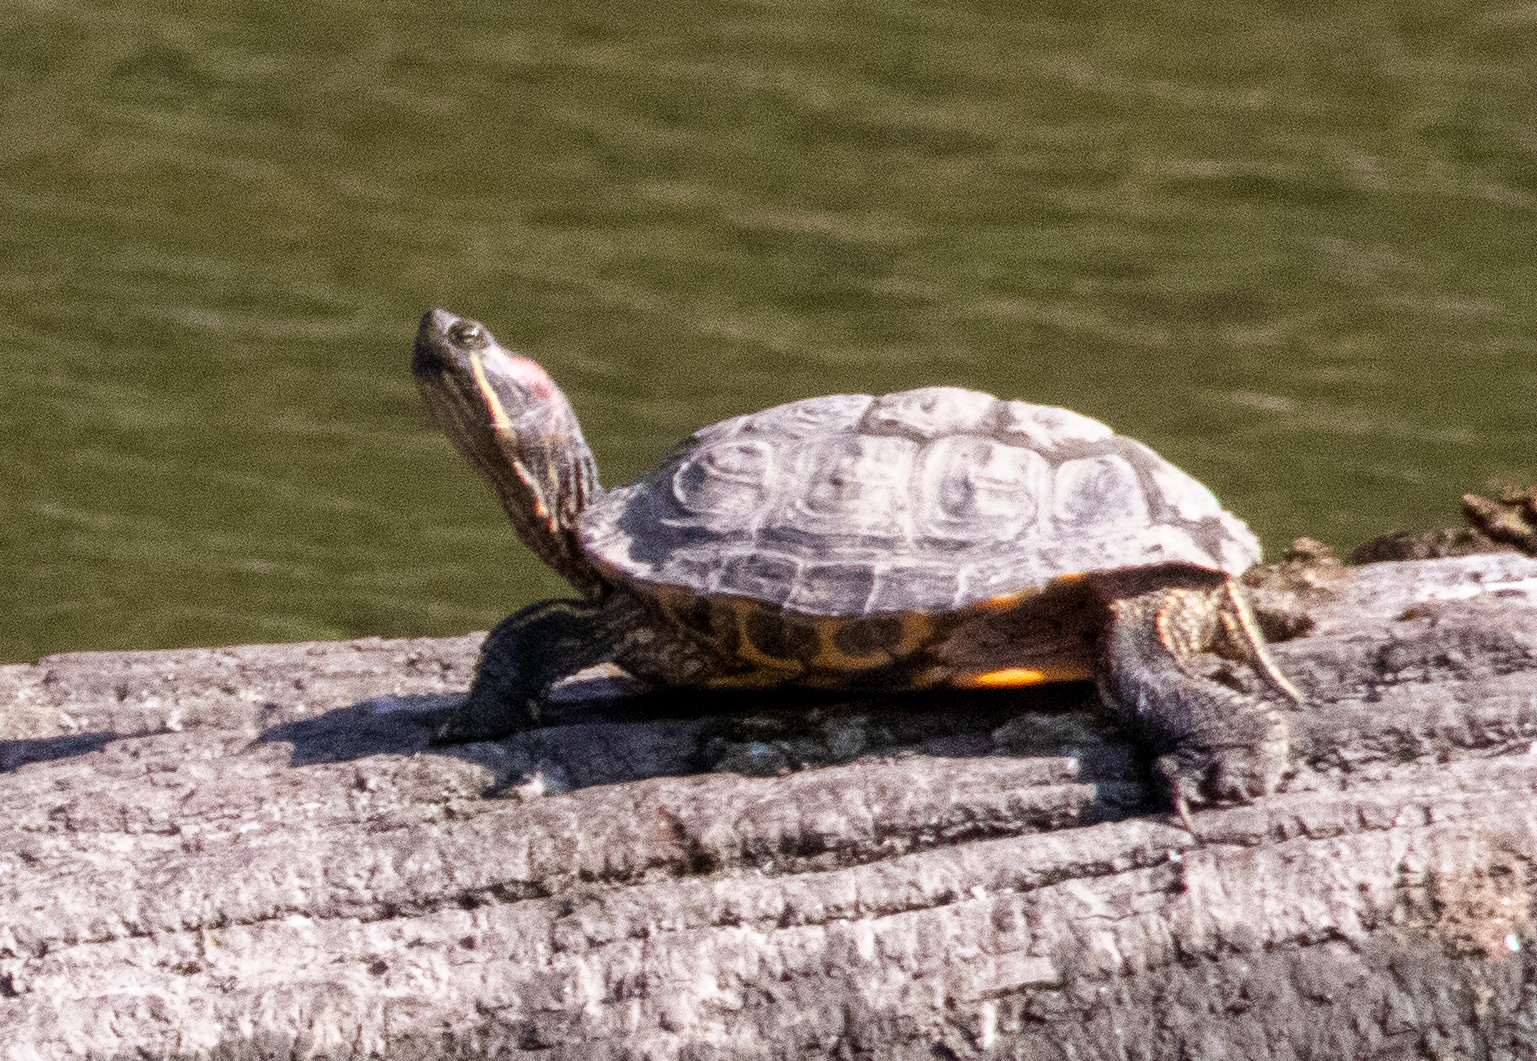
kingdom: Animalia
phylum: Chordata
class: Testudines
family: Emydidae
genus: Trachemys
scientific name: Trachemys scripta
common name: Slider
